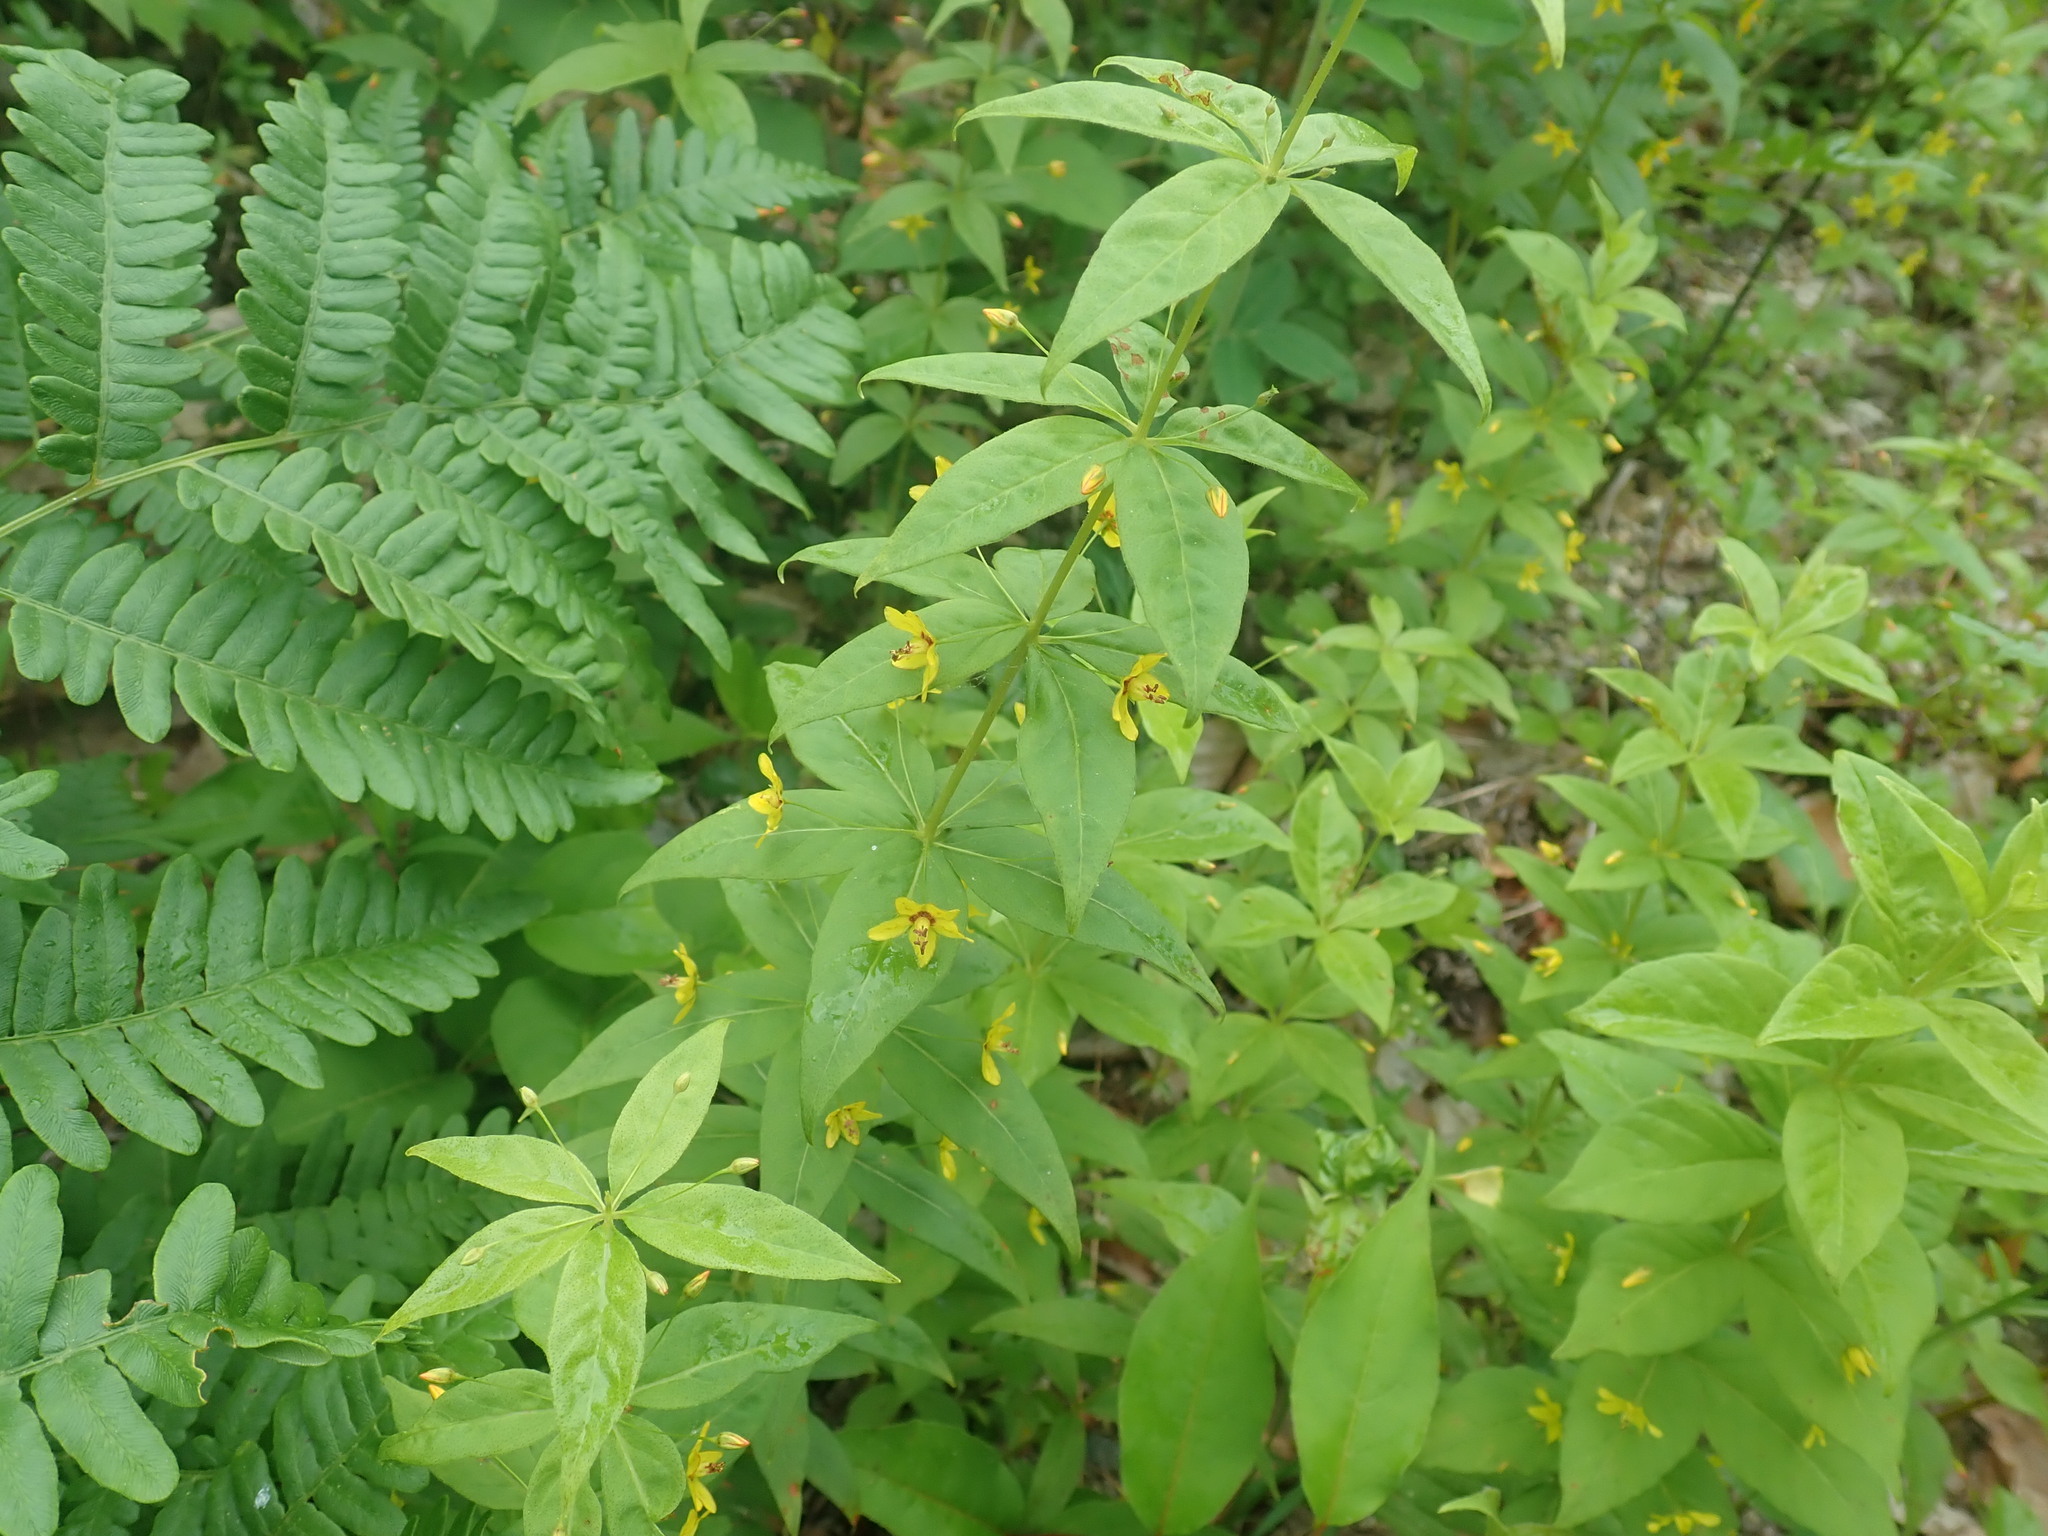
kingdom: Plantae
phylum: Tracheophyta
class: Magnoliopsida
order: Ericales
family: Primulaceae
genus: Lysimachia
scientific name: Lysimachia quadrifolia
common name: Whorled loosestrife
